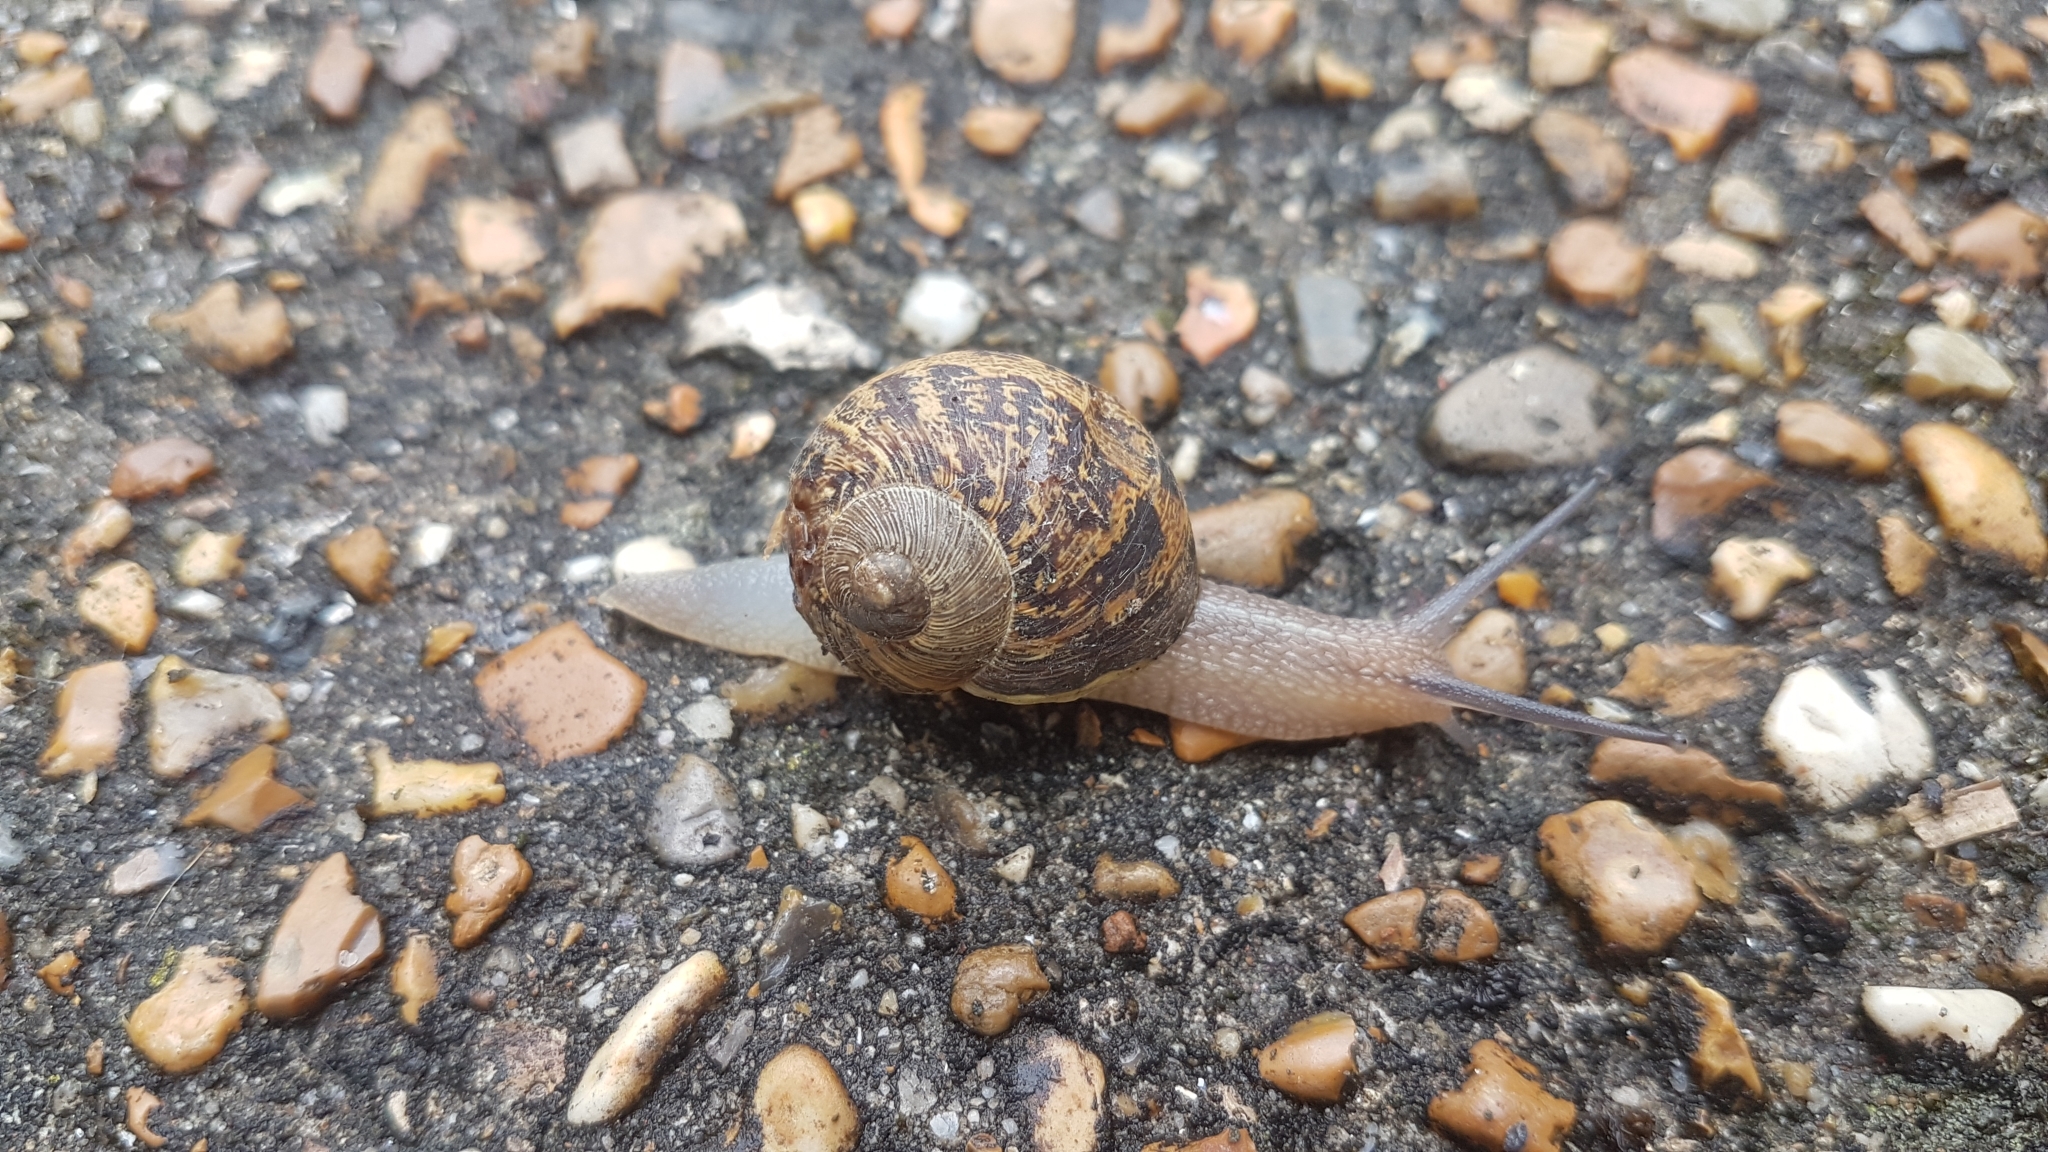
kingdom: Animalia
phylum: Mollusca
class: Gastropoda
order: Stylommatophora
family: Helicidae
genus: Cornu
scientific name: Cornu aspersum
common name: Brown garden snail
